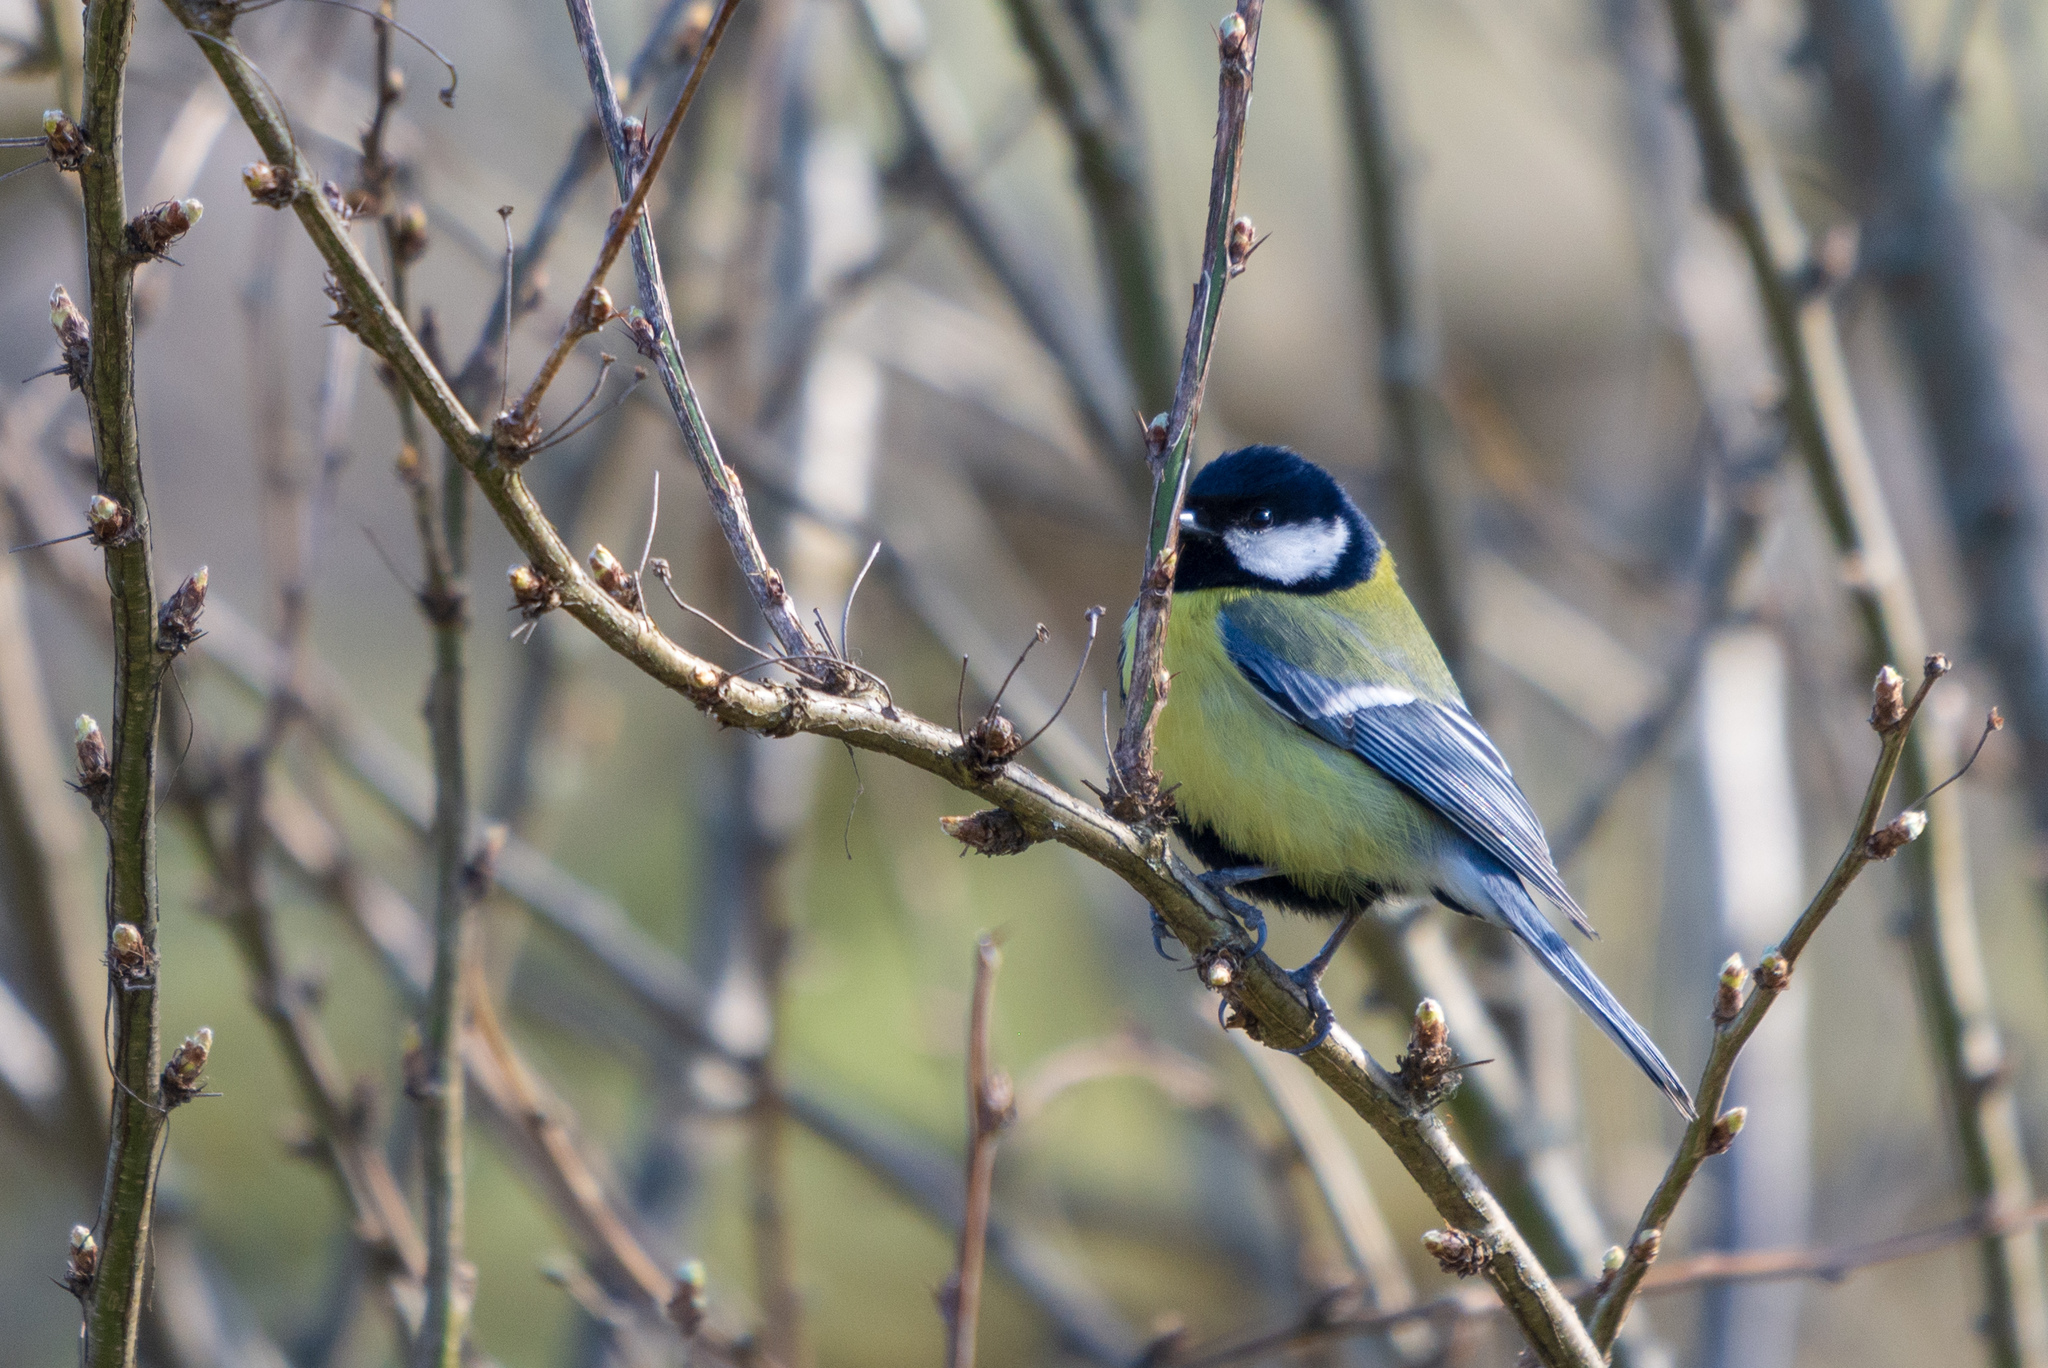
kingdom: Animalia
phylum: Chordata
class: Aves
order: Passeriformes
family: Paridae
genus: Parus
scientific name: Parus major
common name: Great tit
